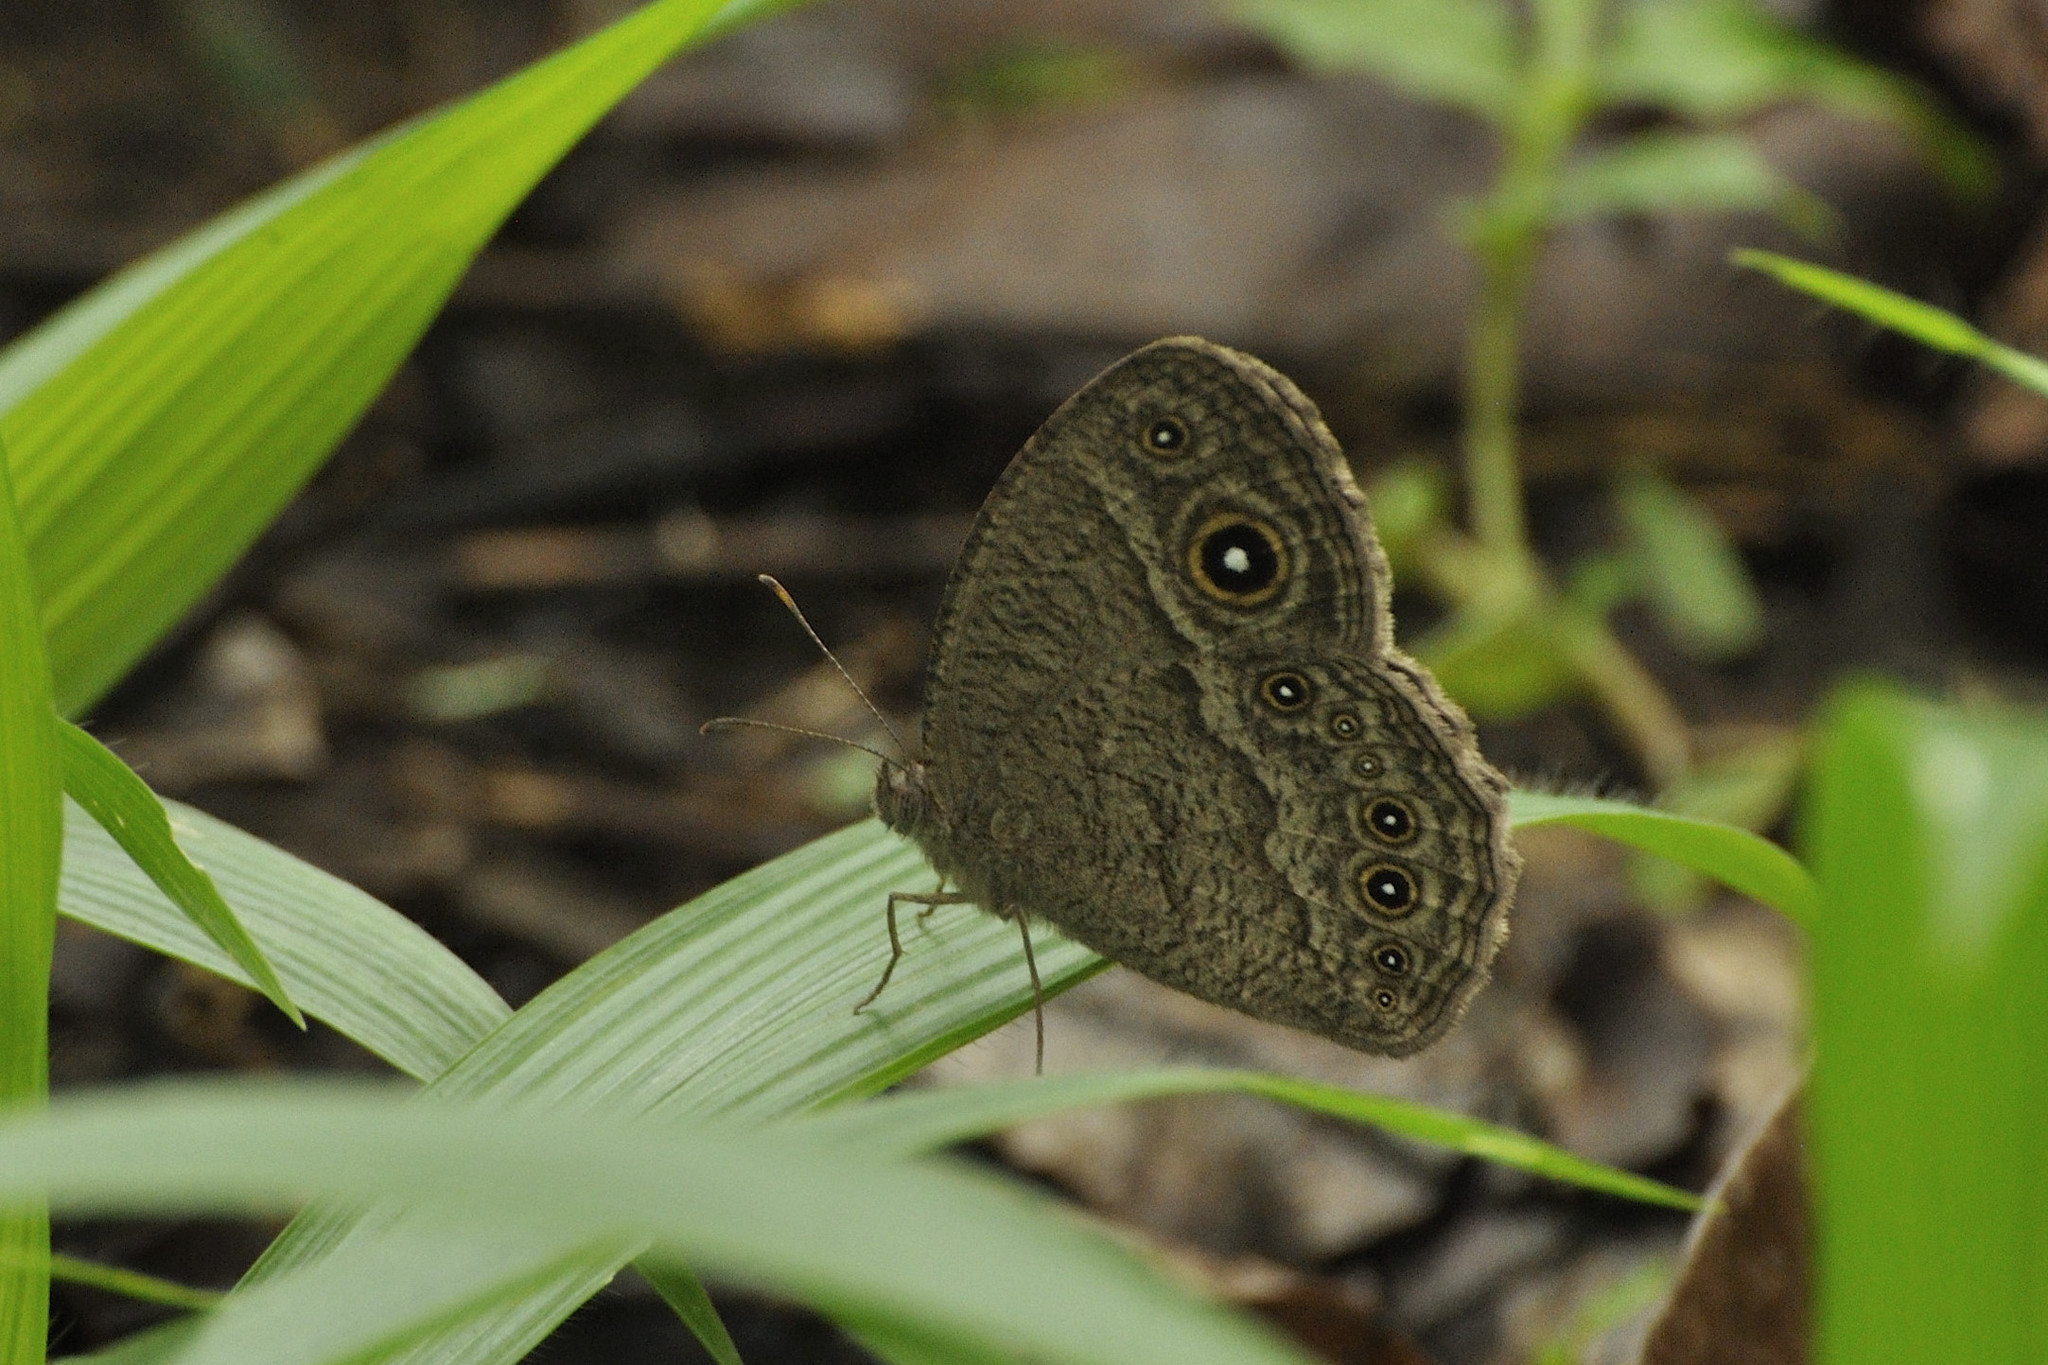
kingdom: Animalia
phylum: Arthropoda
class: Insecta
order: Lepidoptera
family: Nymphalidae
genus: Mycalesis
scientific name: Mycalesis ena
